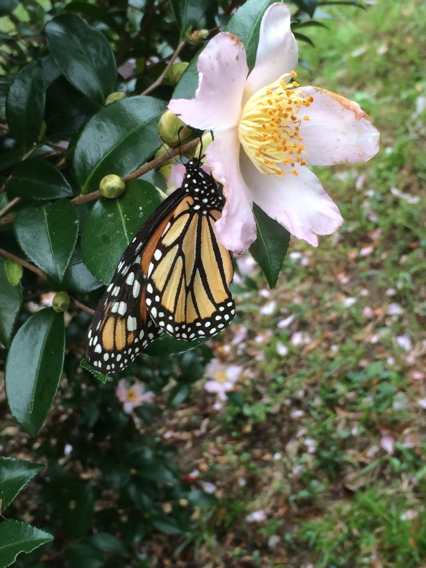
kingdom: Animalia
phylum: Arthropoda
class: Insecta
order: Lepidoptera
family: Nymphalidae
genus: Danaus
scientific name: Danaus plexippus
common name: Monarch
